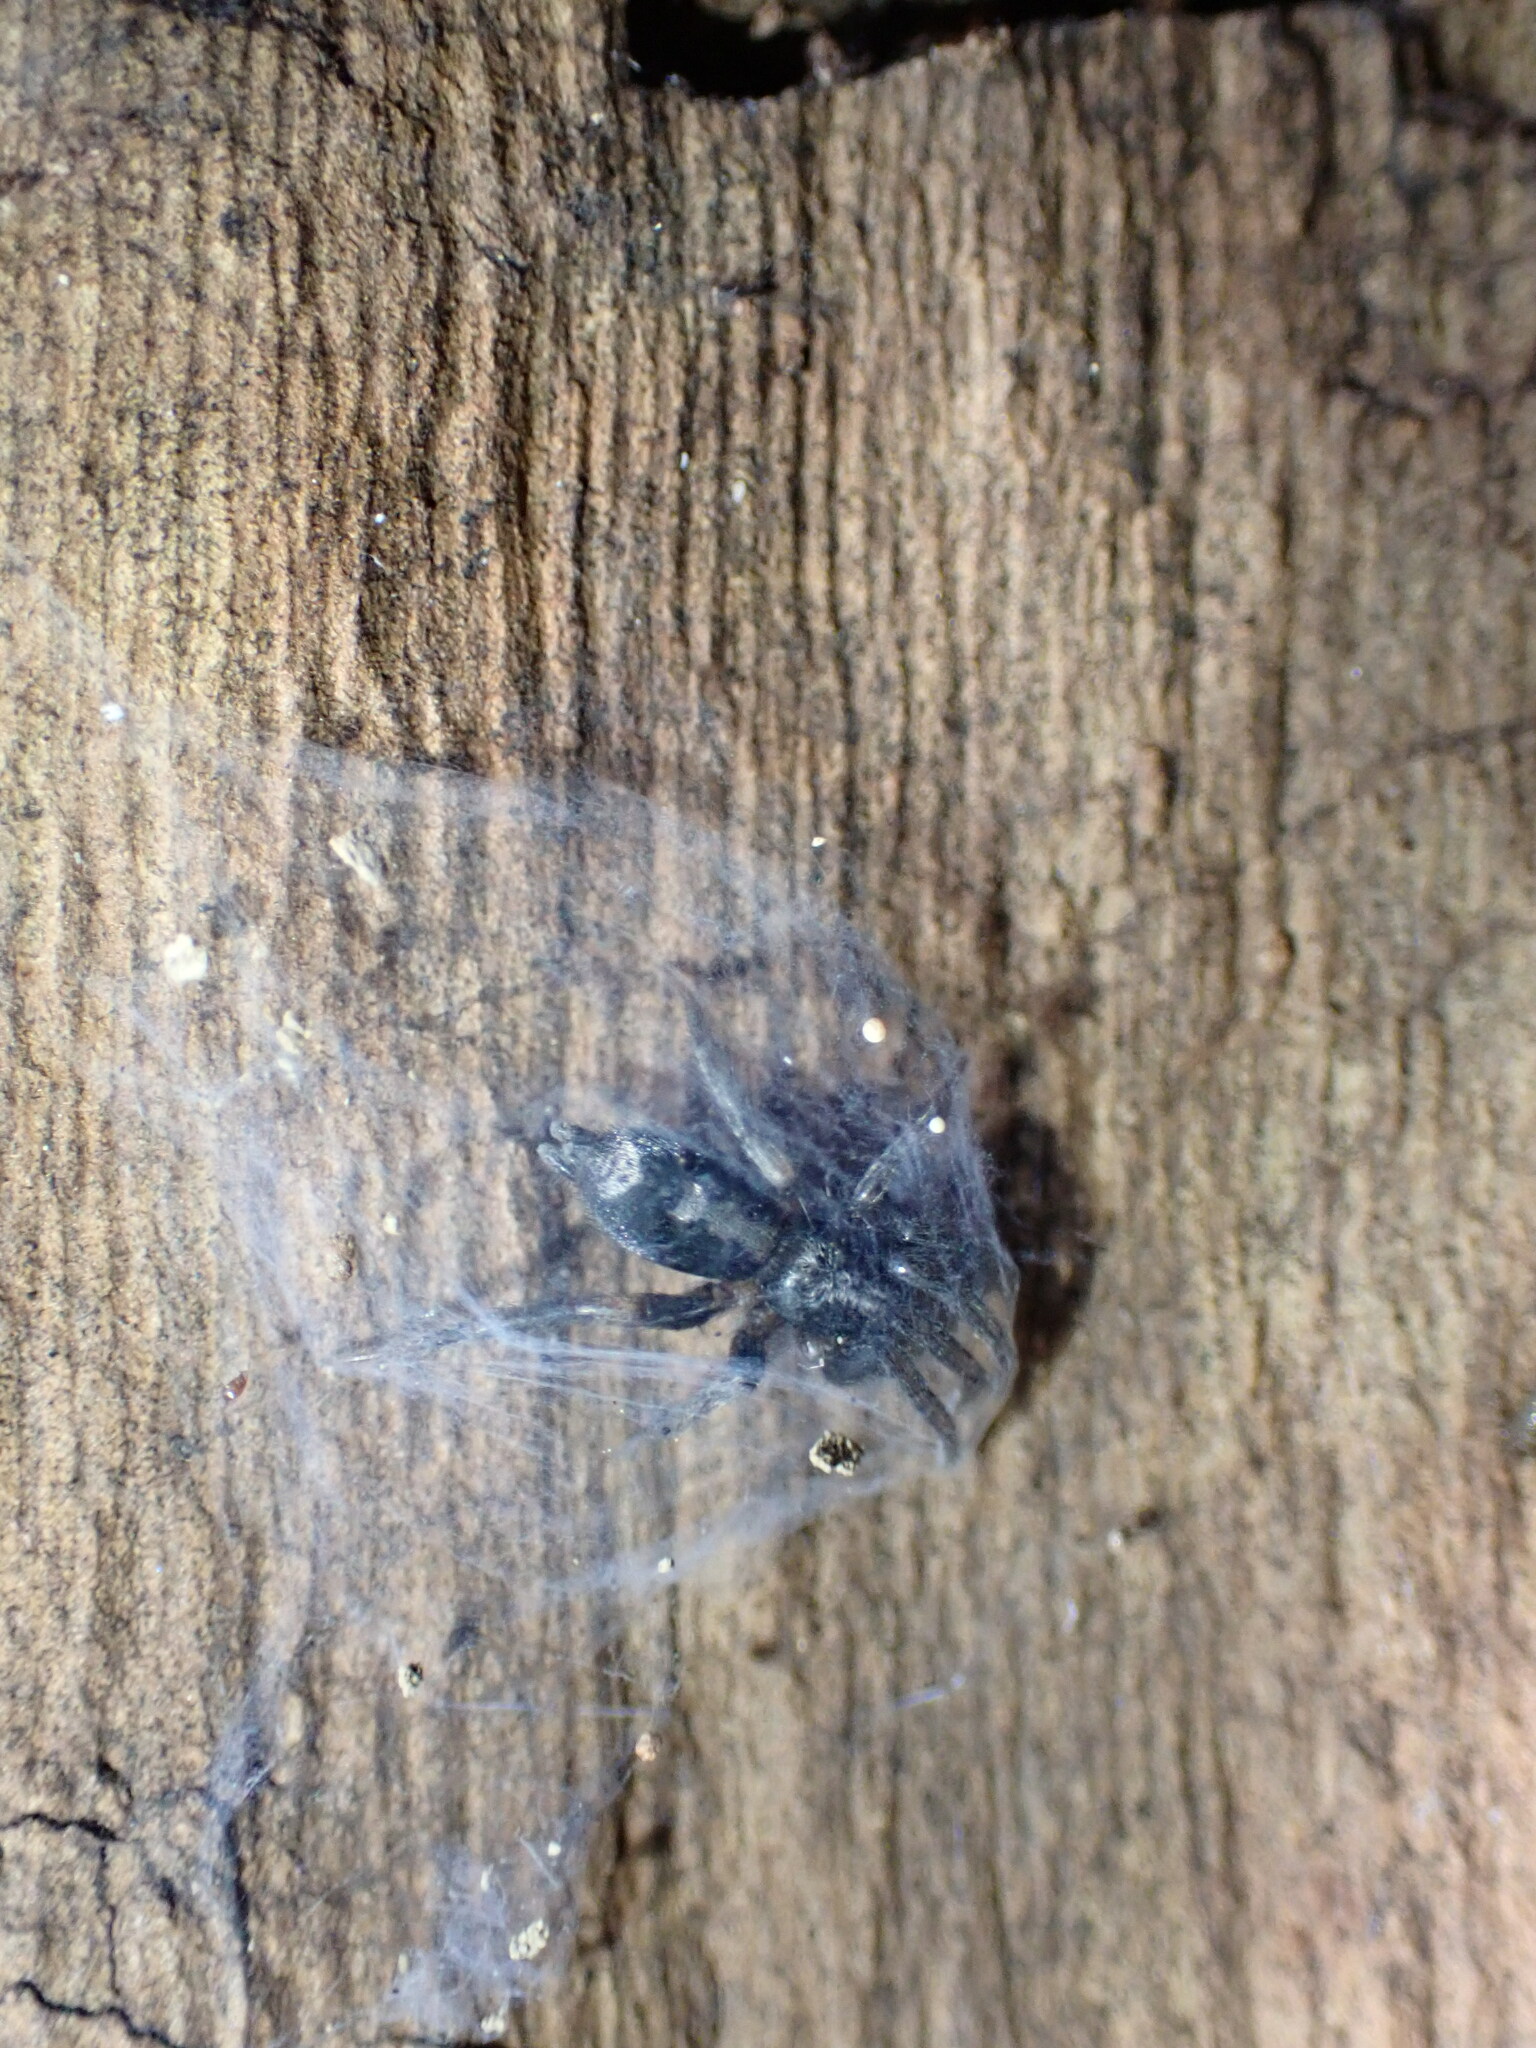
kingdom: Animalia
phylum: Arthropoda
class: Arachnida
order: Araneae
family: Gnaphosidae
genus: Herpyllus
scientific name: Herpyllus ecclesiasticus
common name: Eastern parson spider
